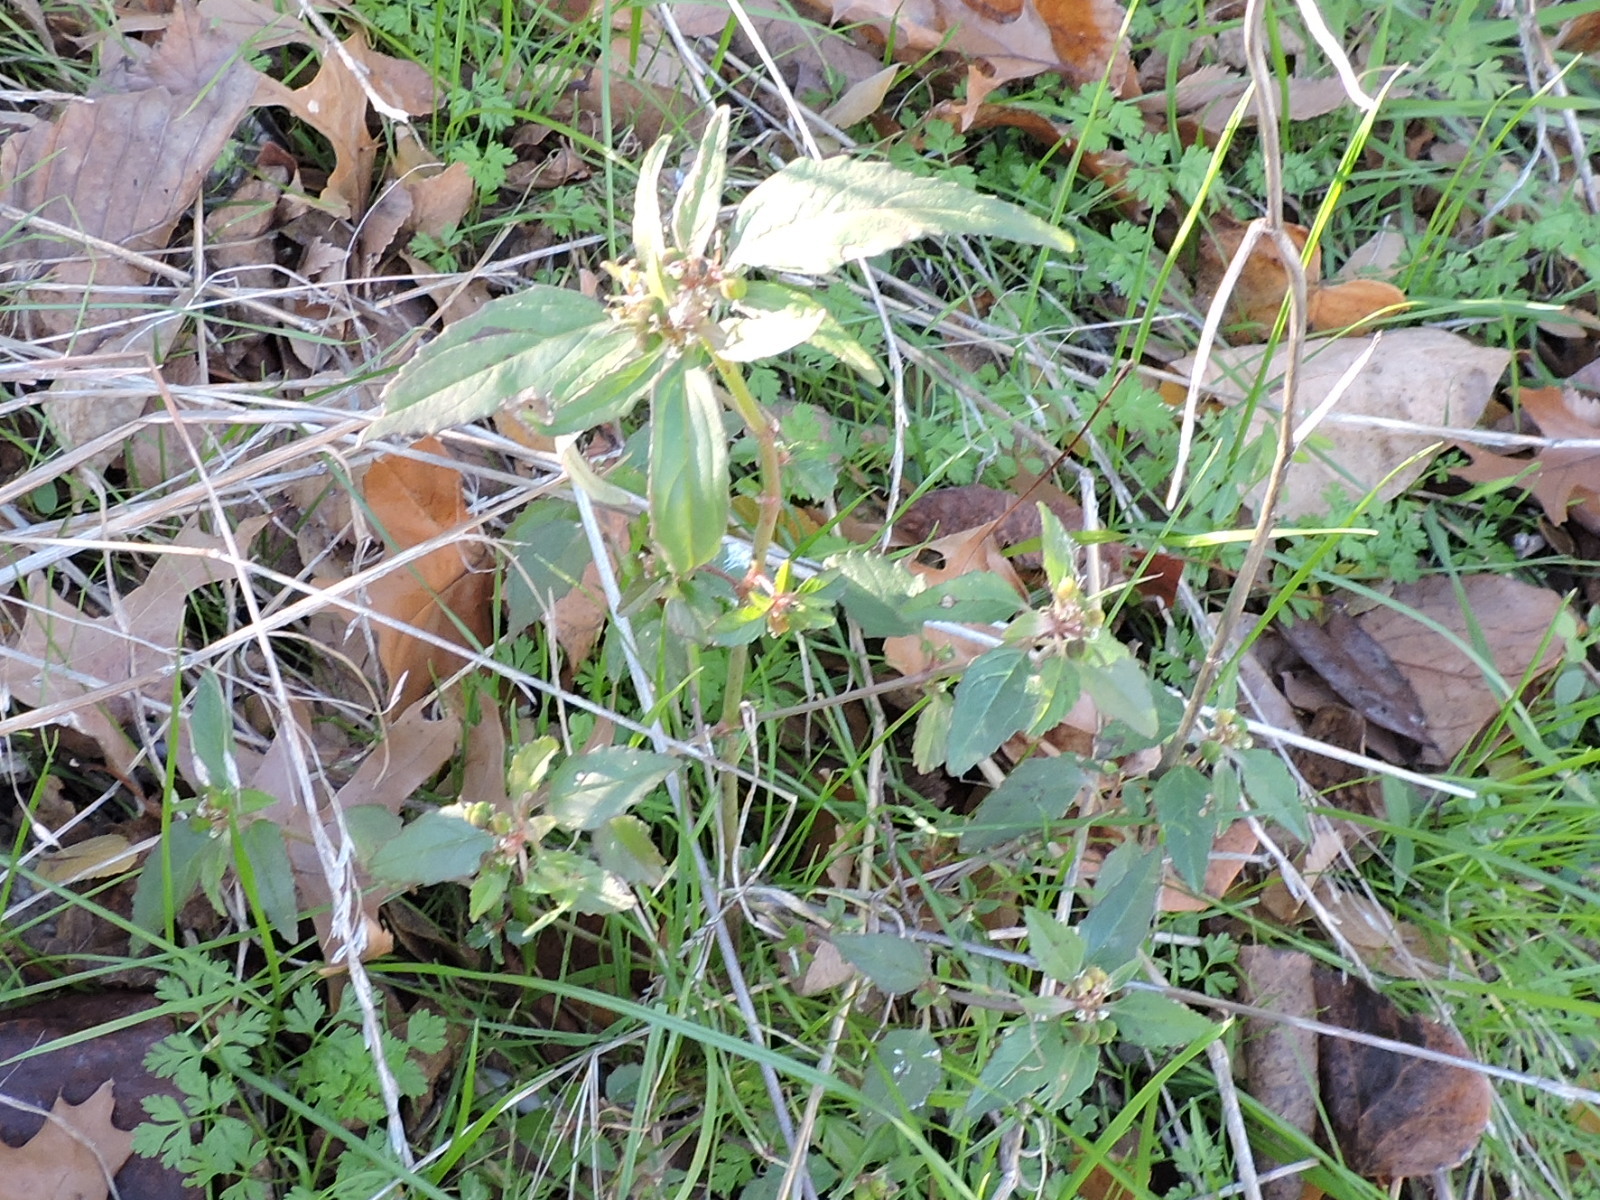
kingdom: Plantae
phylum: Tracheophyta
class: Magnoliopsida
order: Malpighiales
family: Euphorbiaceae
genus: Euphorbia
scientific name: Euphorbia dentata
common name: Dentate spurge
